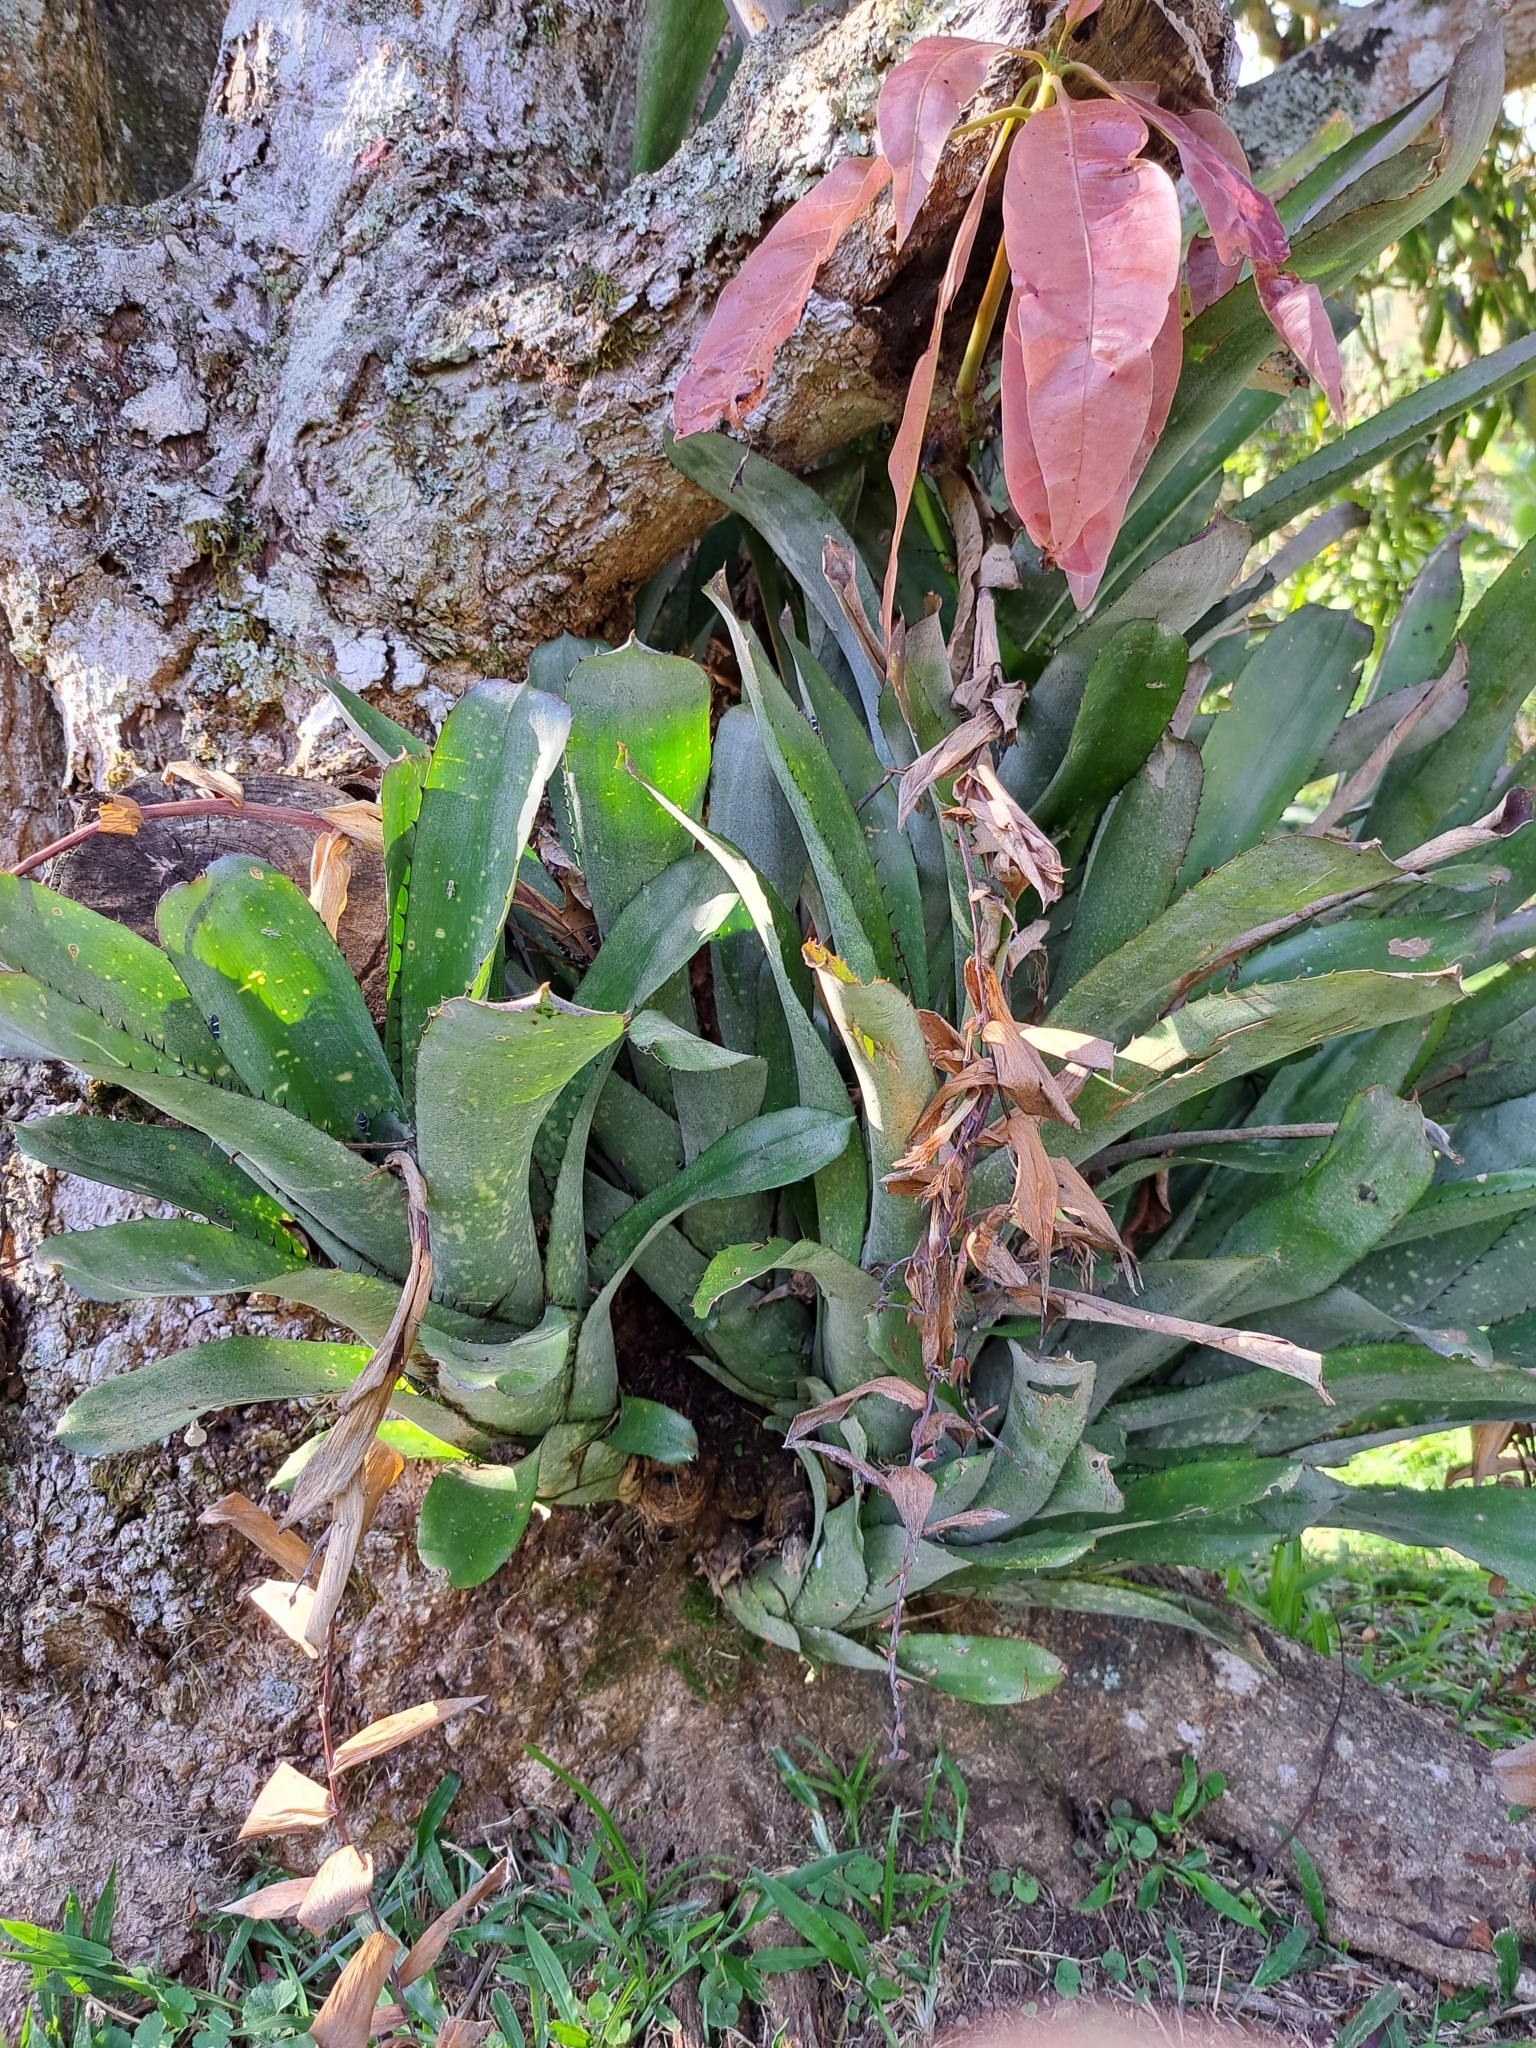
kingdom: Plantae
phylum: Tracheophyta
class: Liliopsida
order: Poales
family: Bromeliaceae
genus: Billbergia
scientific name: Billbergia sanderiana
